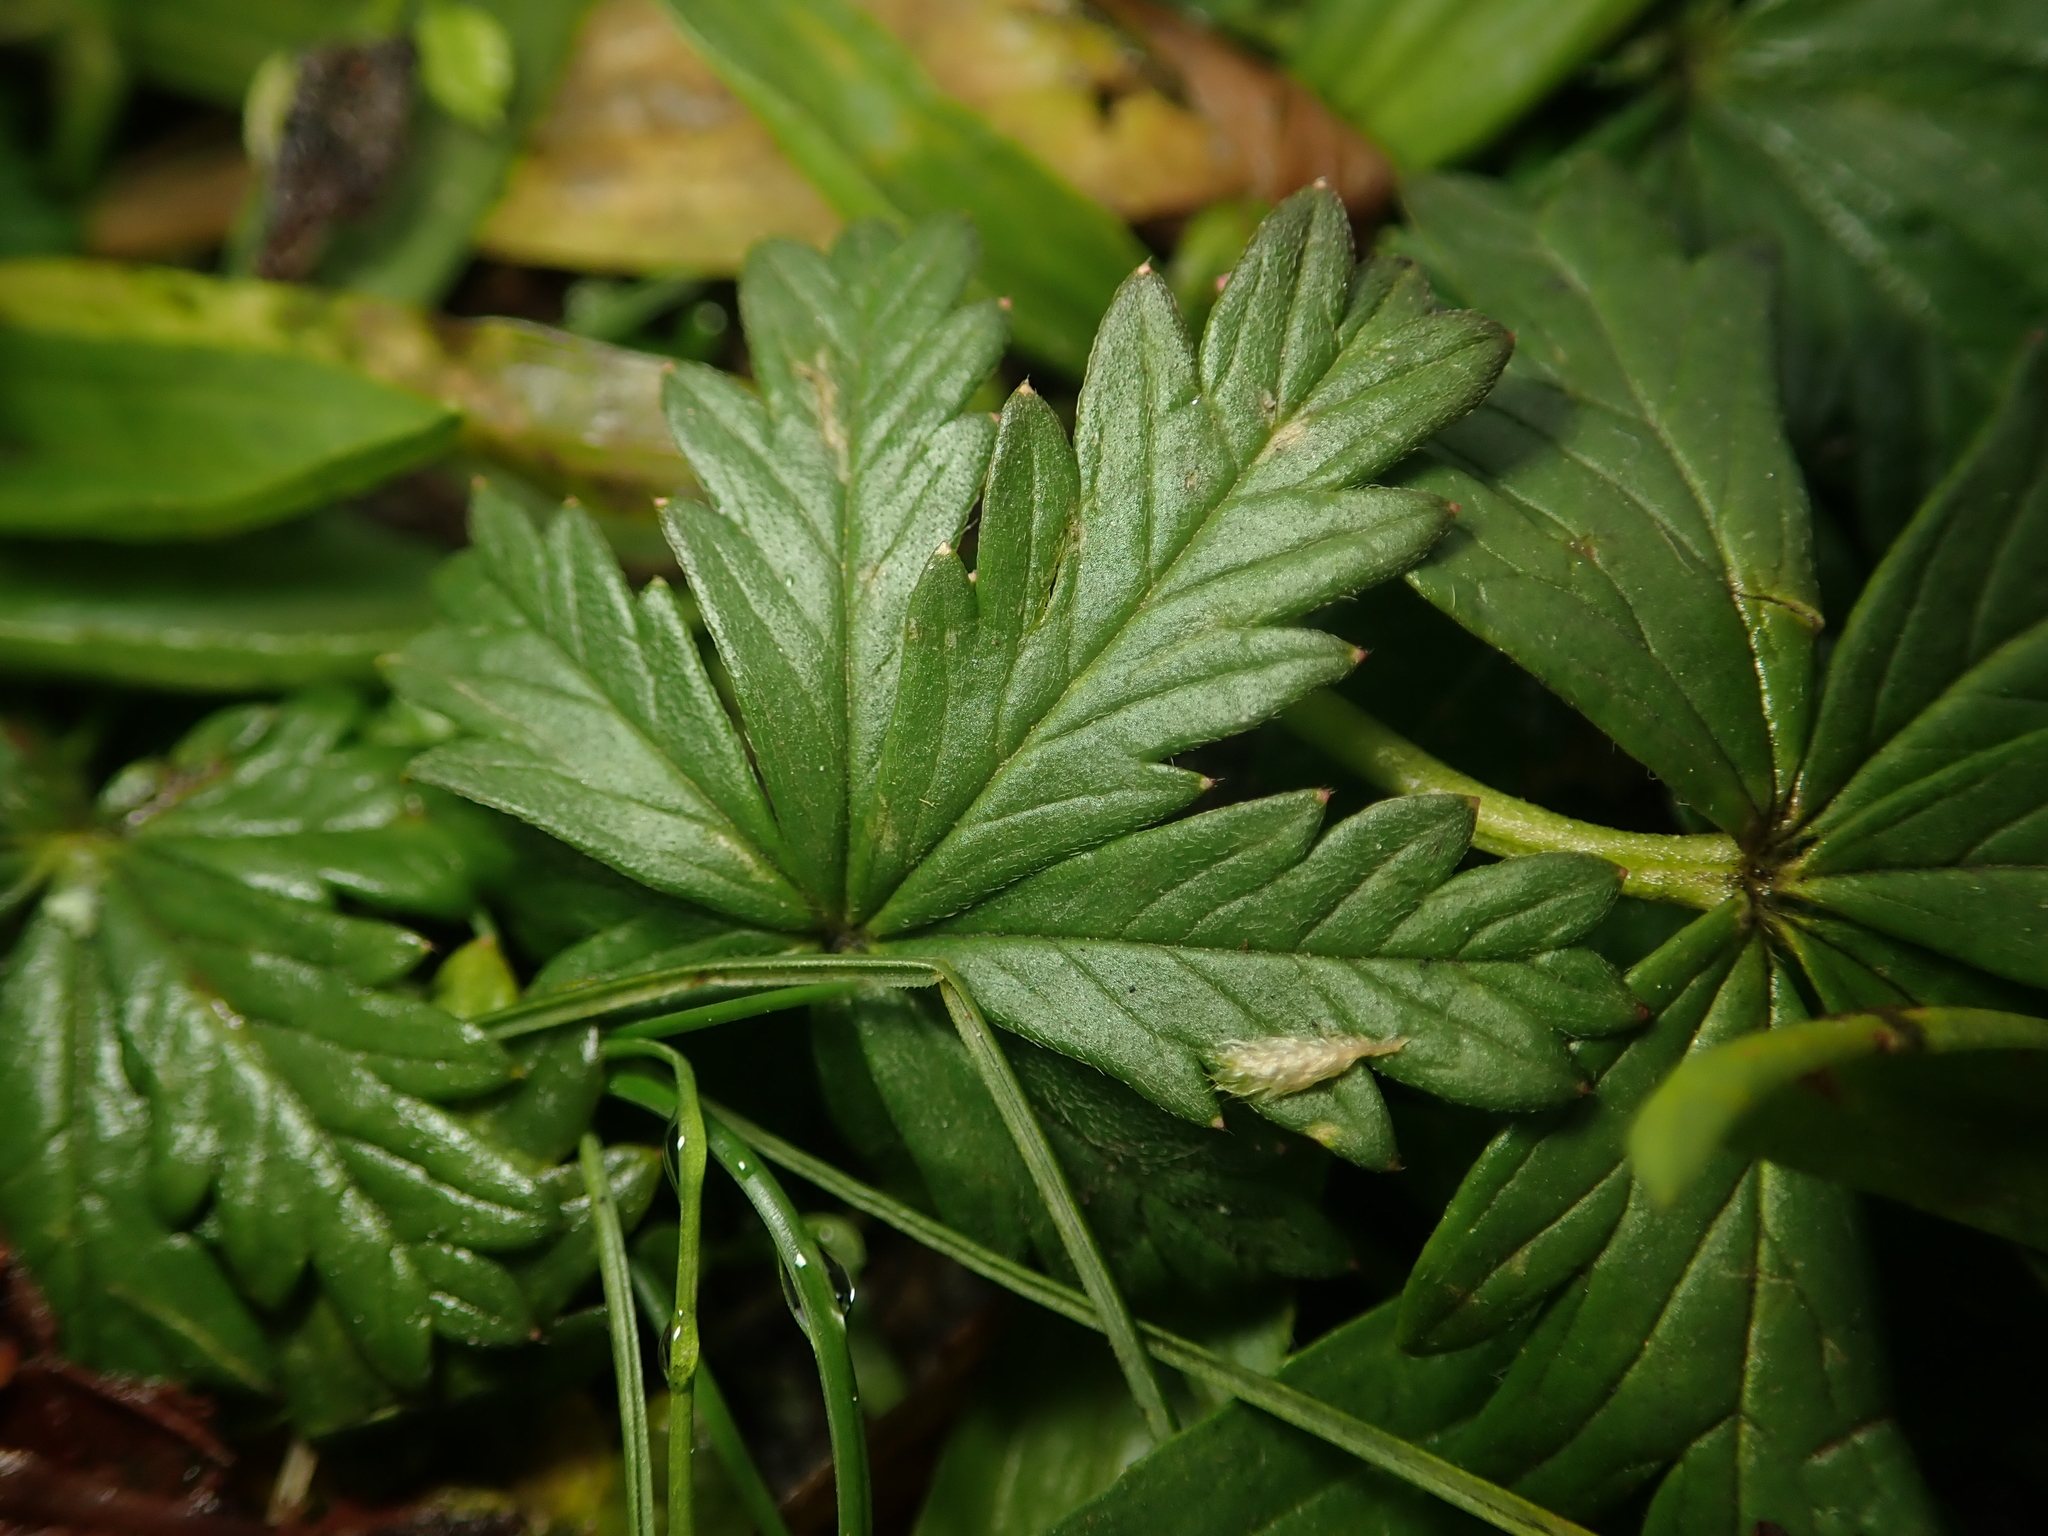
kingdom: Plantae
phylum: Tracheophyta
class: Magnoliopsida
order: Rosales
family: Rosaceae
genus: Potentilla
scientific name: Potentilla argentea
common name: Hoary cinquefoil
